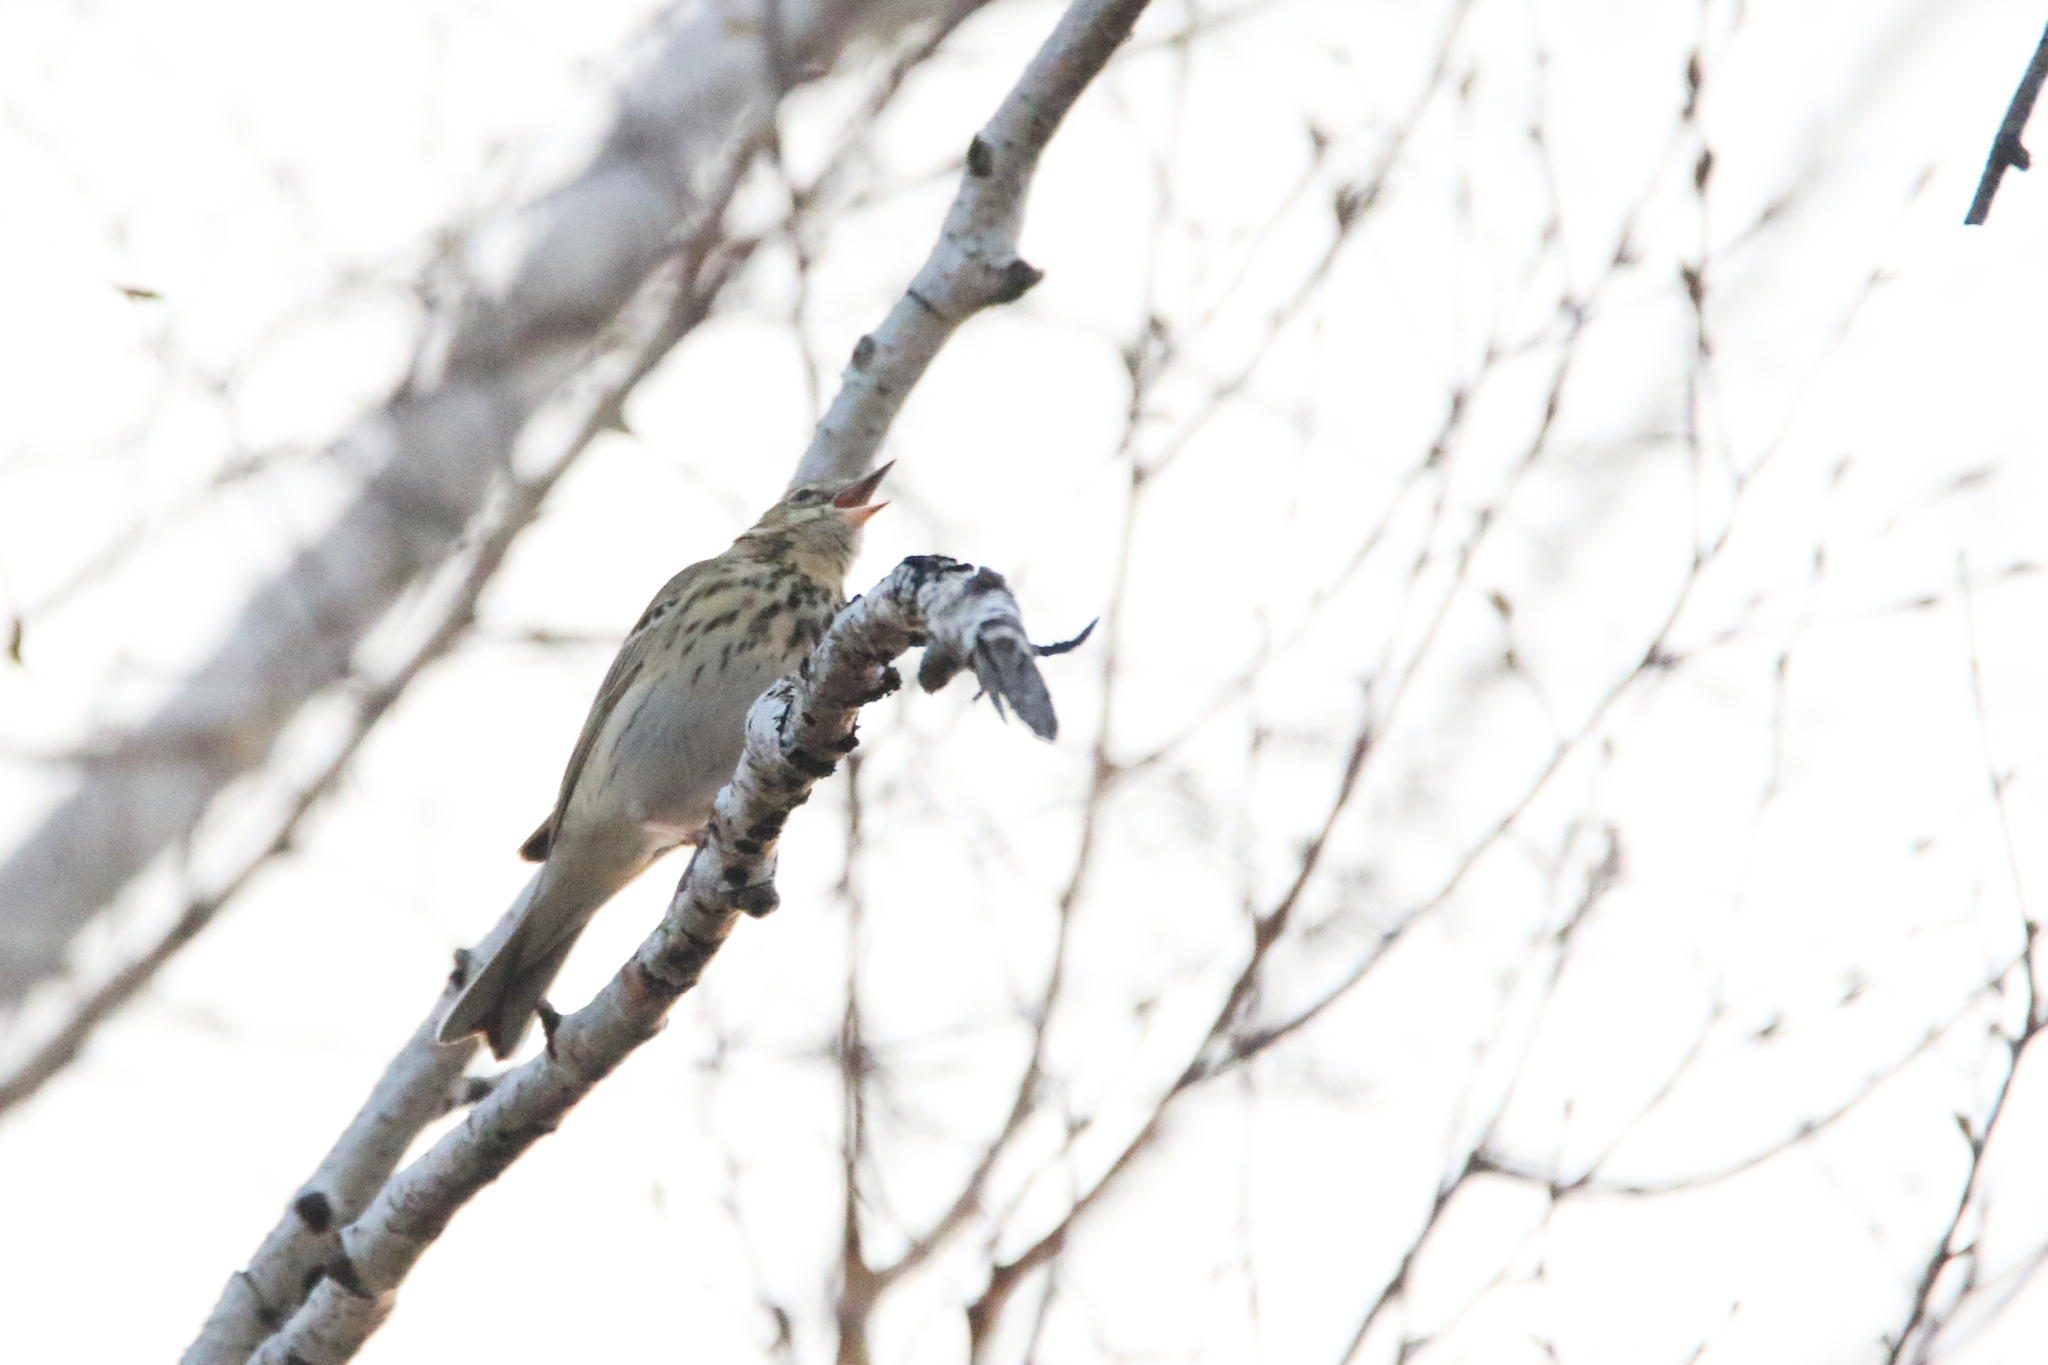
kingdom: Animalia
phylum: Chordata
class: Aves
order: Passeriformes
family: Motacillidae
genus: Anthus
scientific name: Anthus trivialis
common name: Tree pipit
